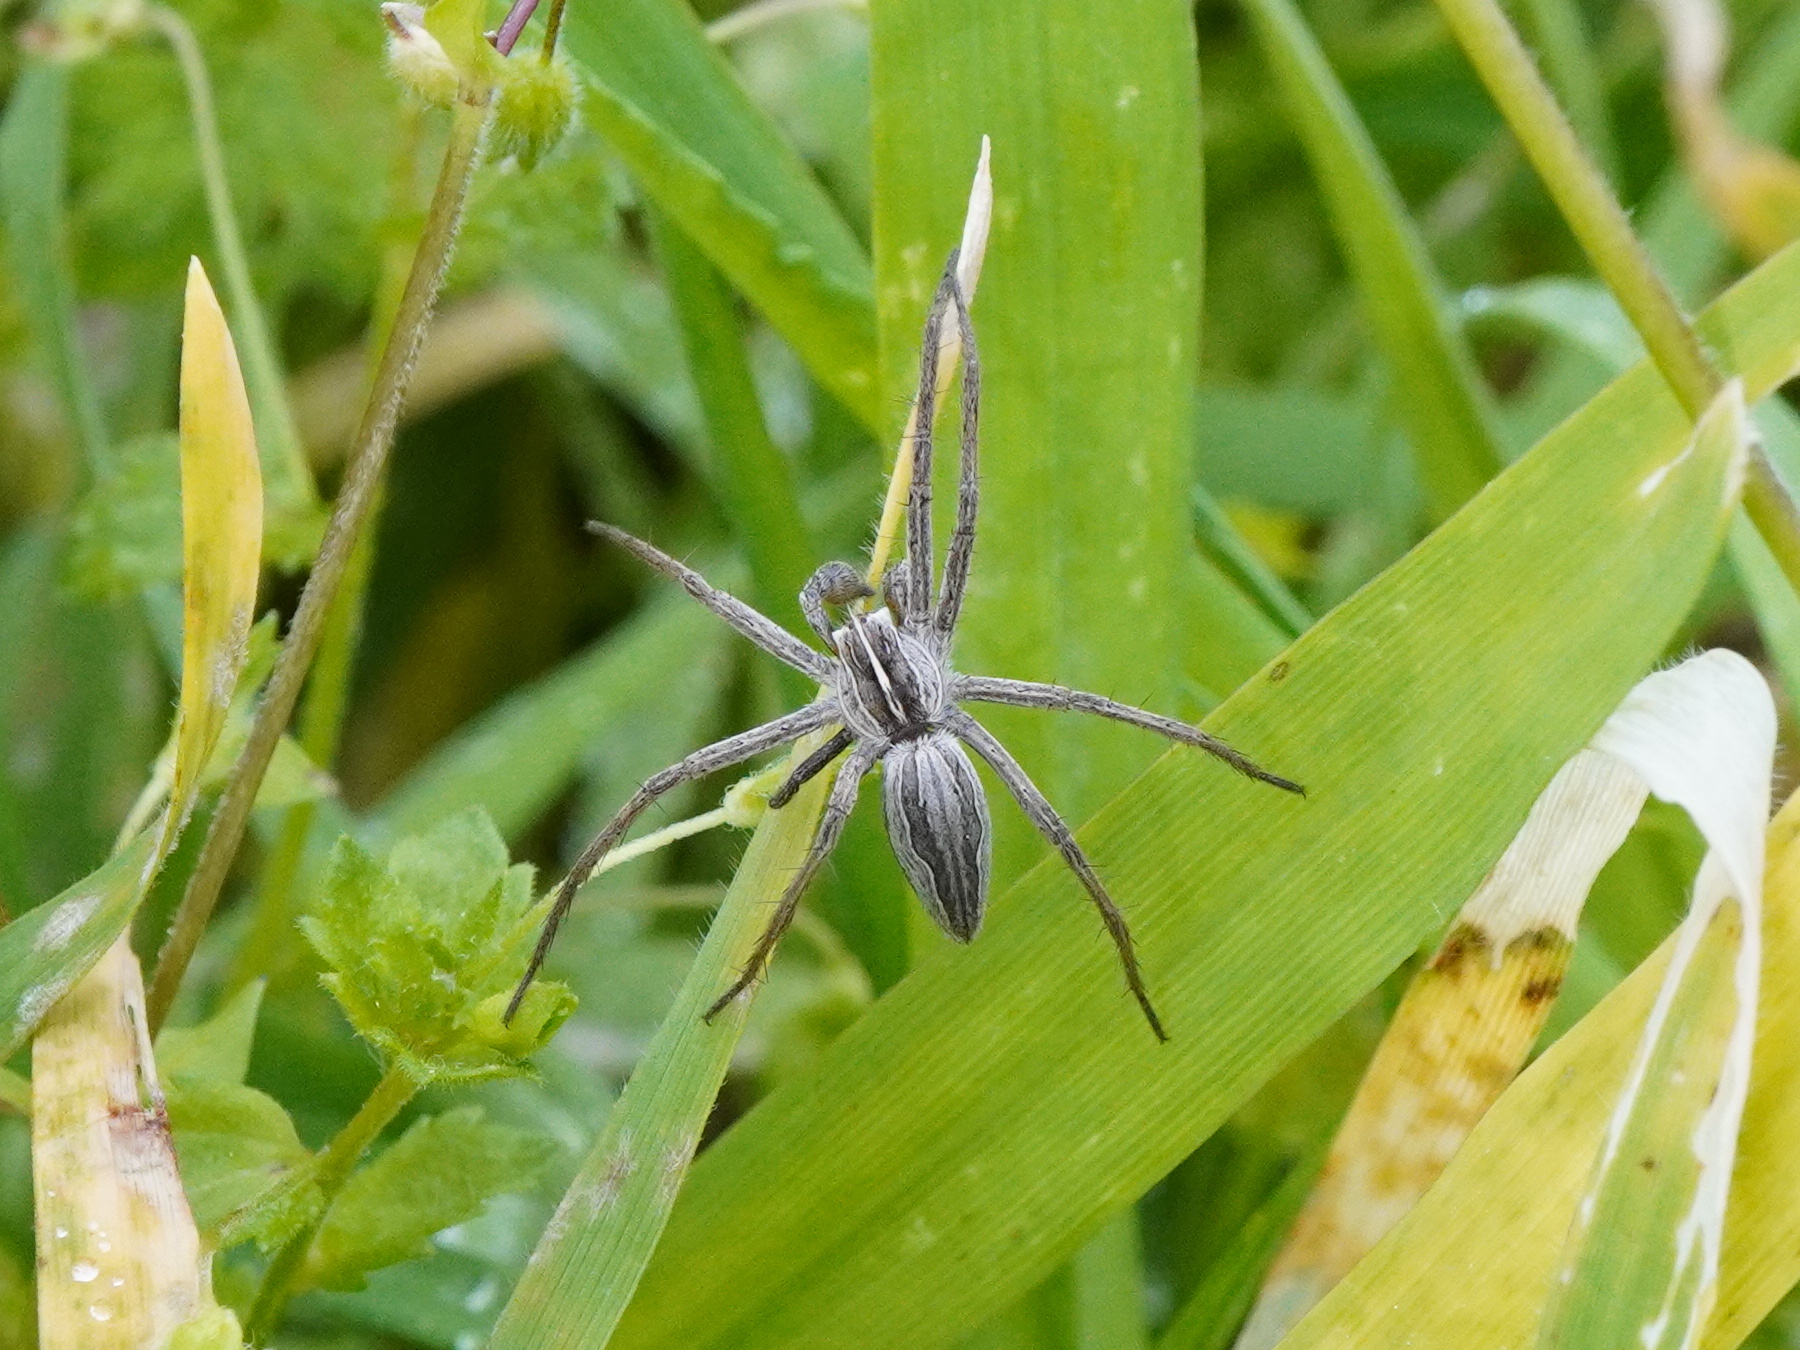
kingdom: Animalia
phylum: Arthropoda
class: Arachnida
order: Araneae
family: Pisauridae
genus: Pisaura
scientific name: Pisaura mirabilis
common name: Tent spider
